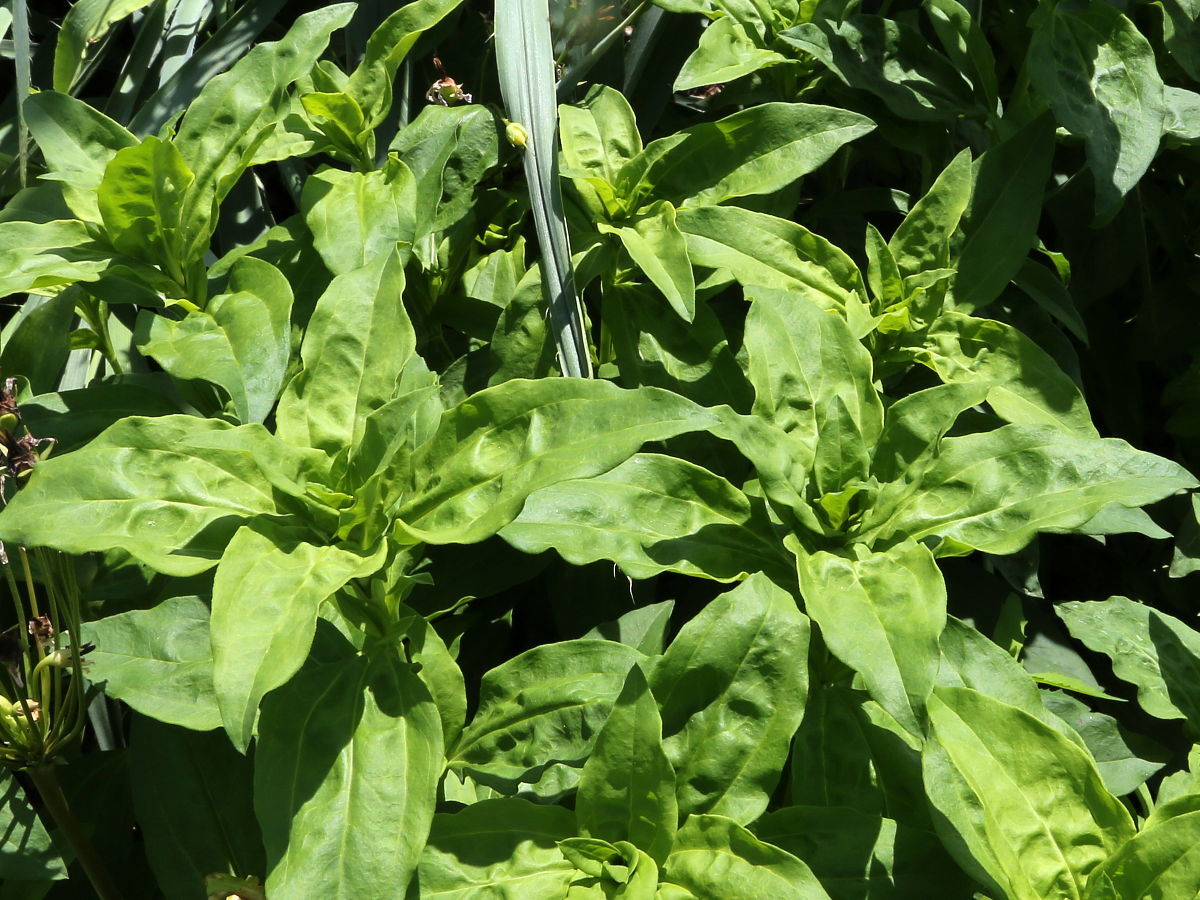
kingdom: Plantae
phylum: Tracheophyta
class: Magnoliopsida
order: Caryophyllales
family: Caryophyllaceae
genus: Saponaria
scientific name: Saponaria officinalis
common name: Soapwort
